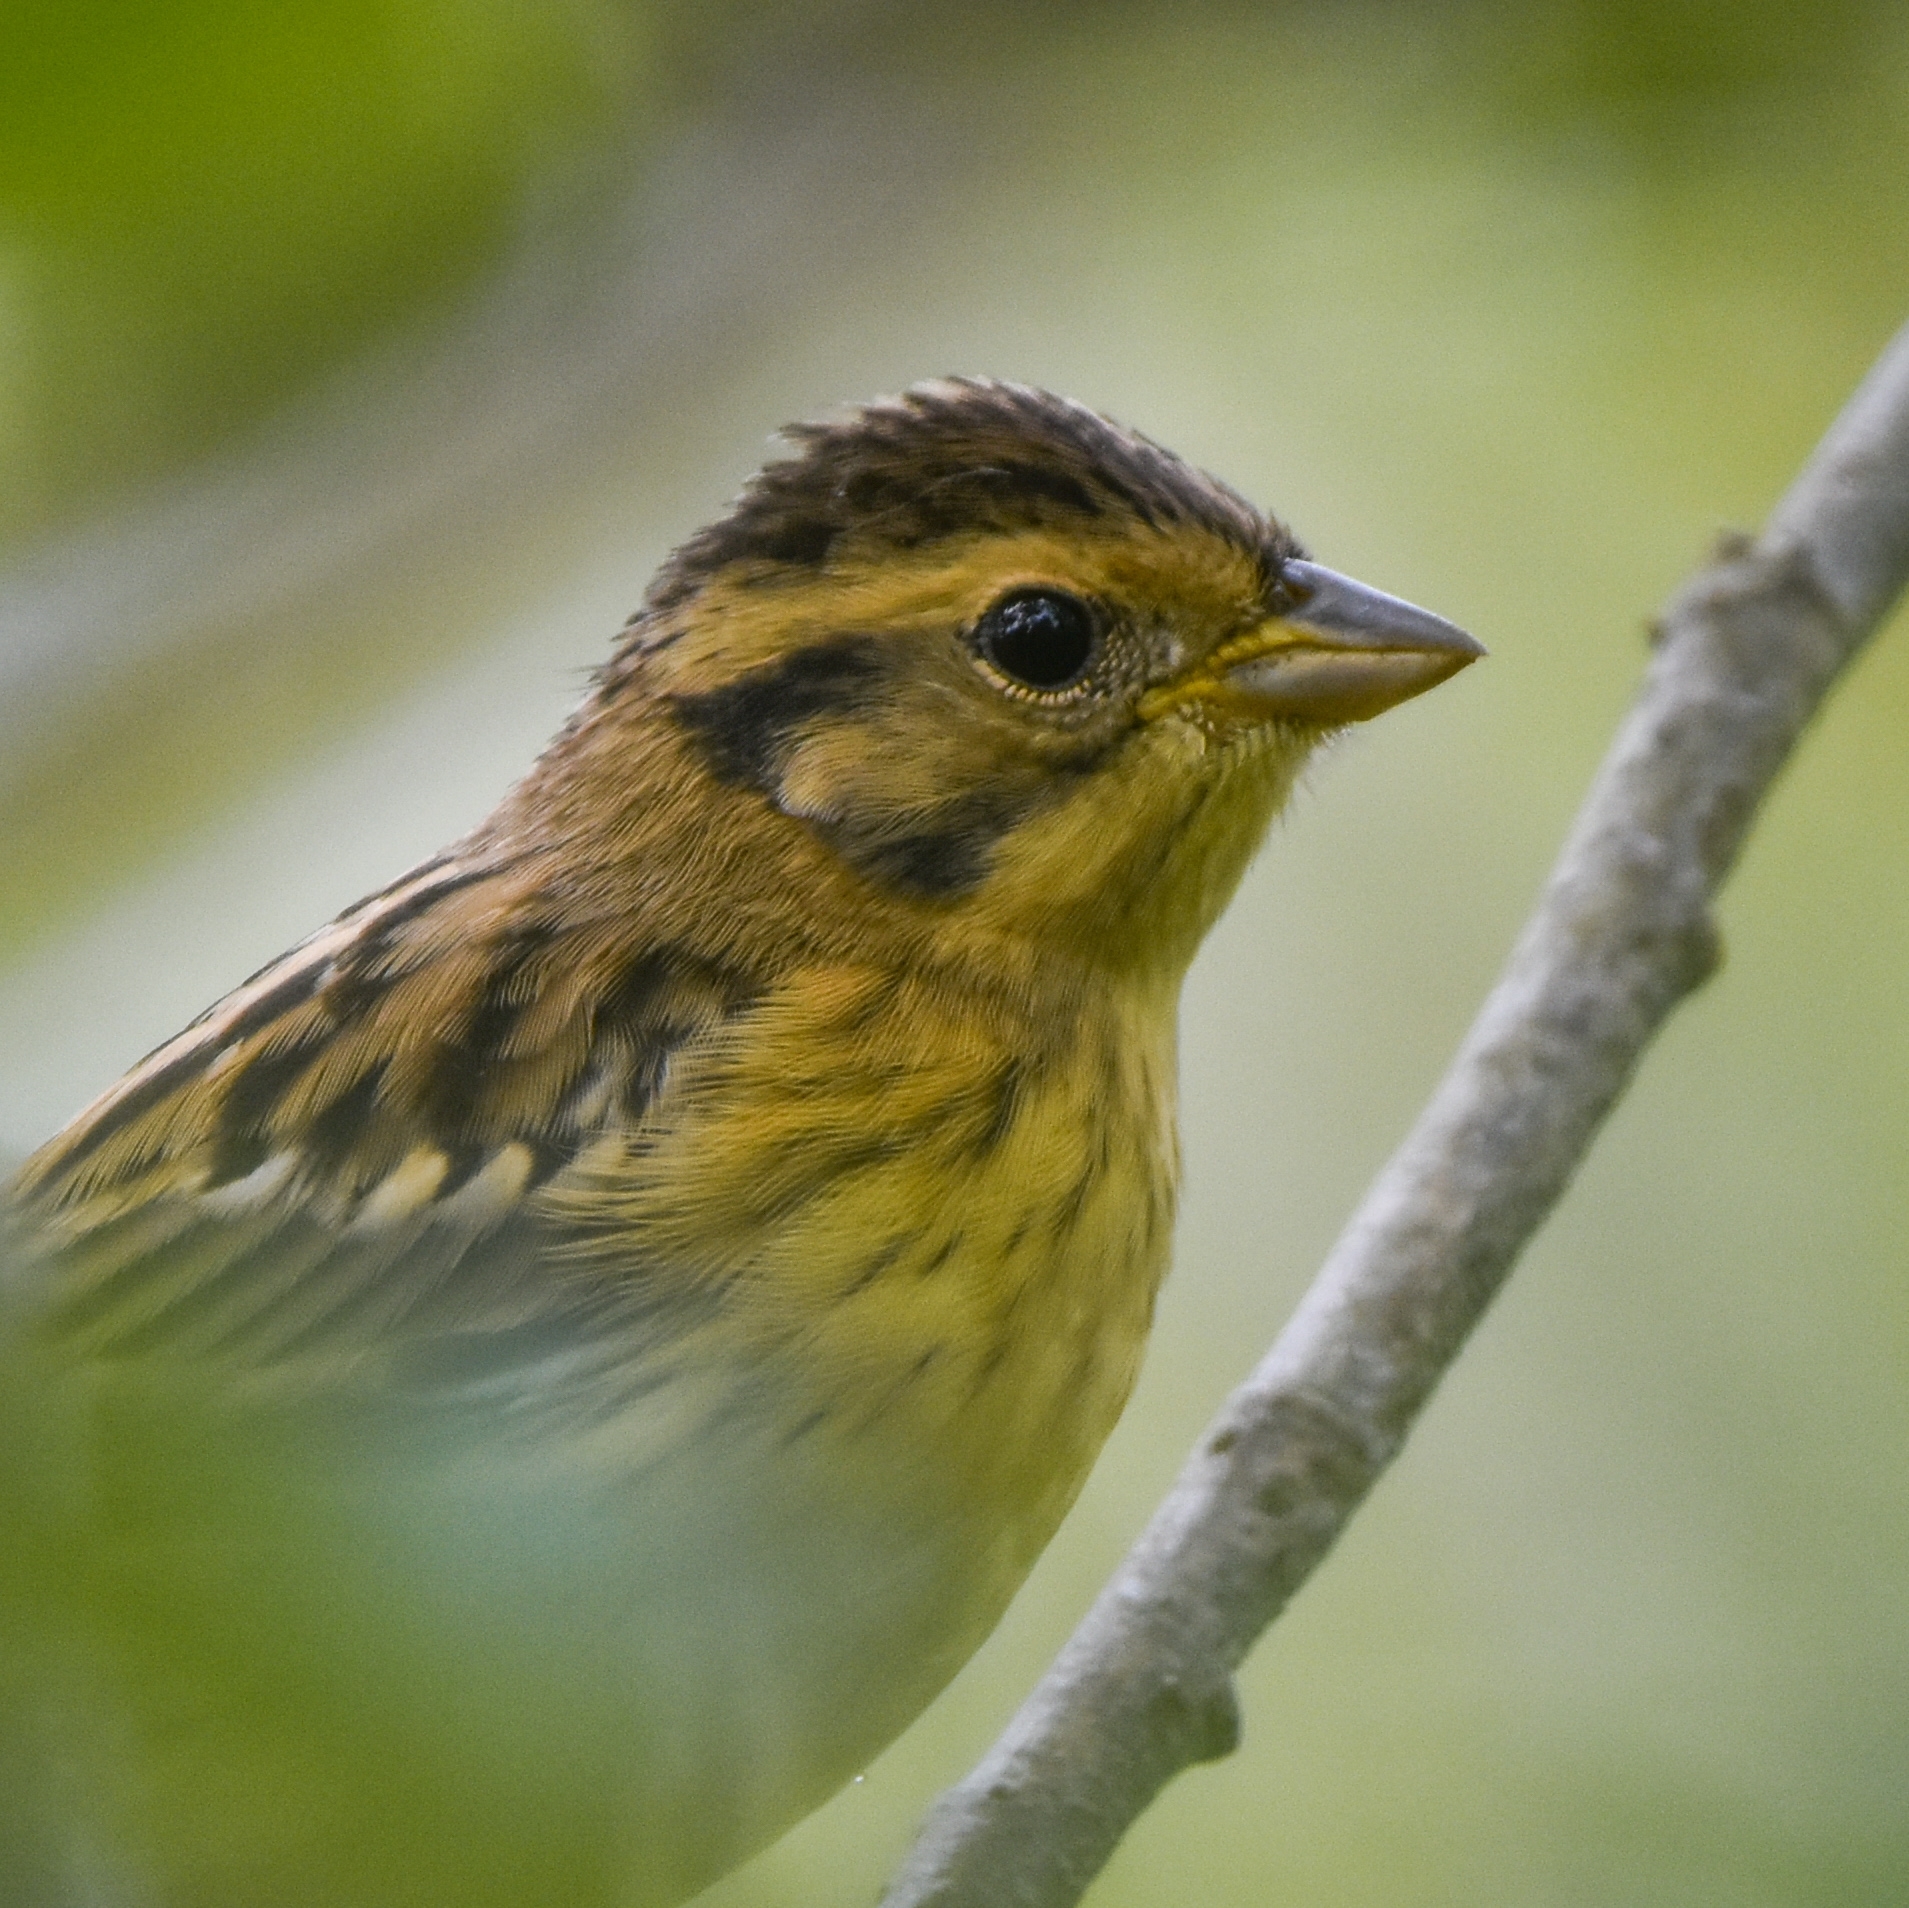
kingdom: Animalia
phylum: Chordata
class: Aves
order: Passeriformes
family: Emberizidae
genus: Emberiza
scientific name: Emberiza aureola
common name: Yellow-breasted bunting
